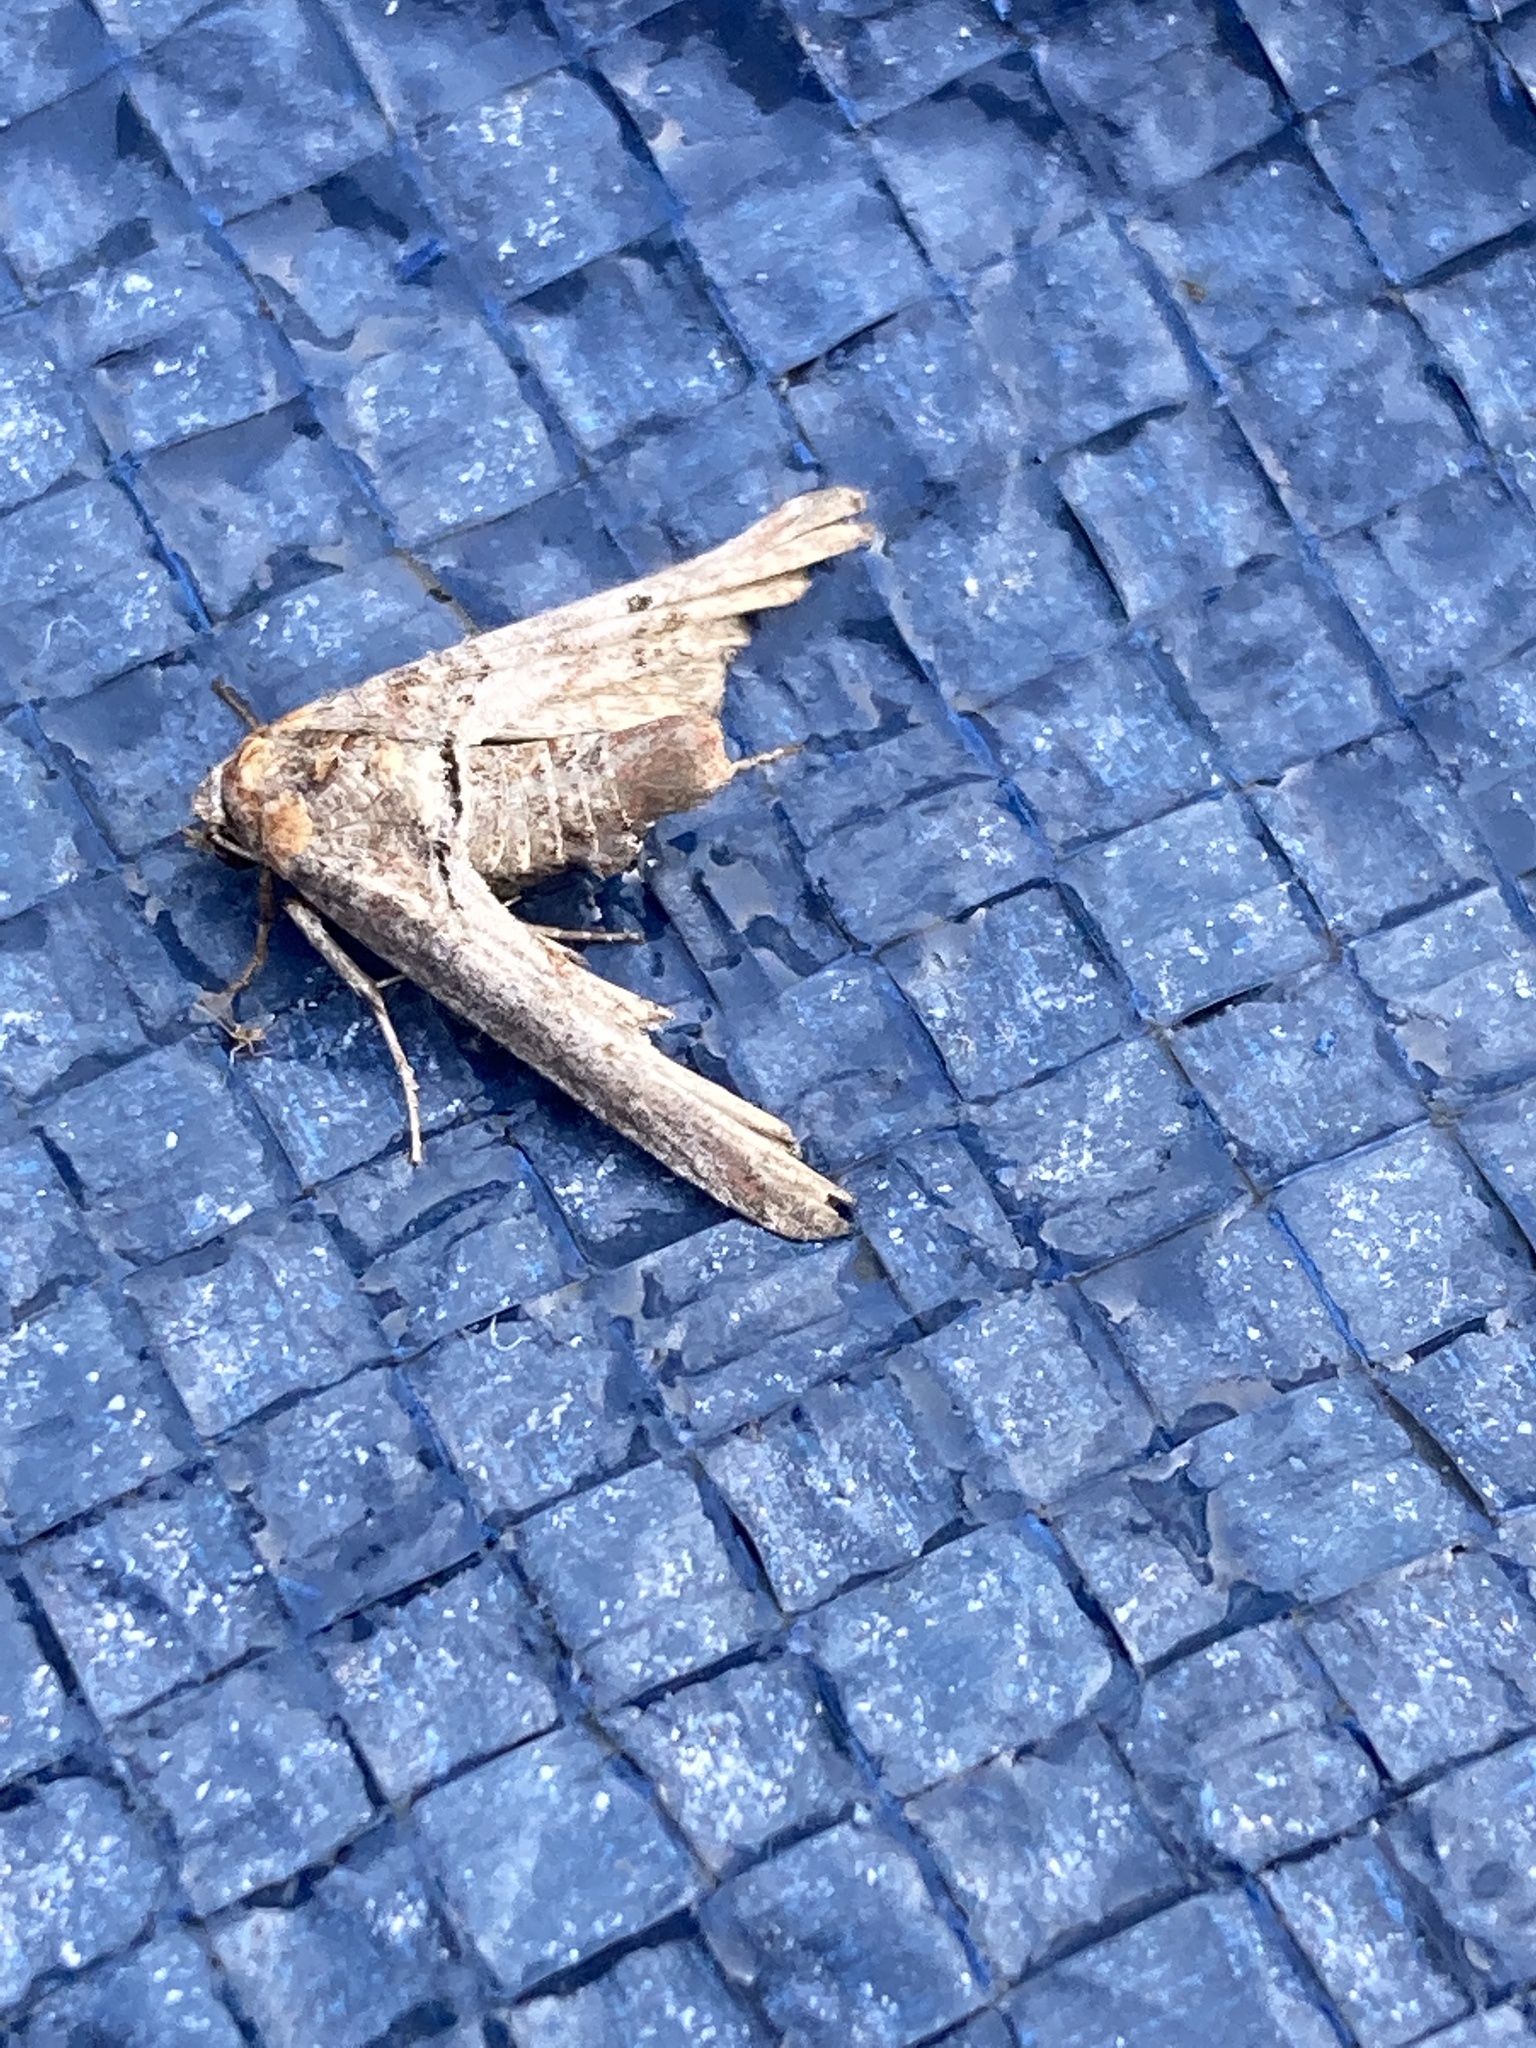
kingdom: Animalia
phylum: Arthropoda
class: Insecta
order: Lepidoptera
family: Euteliidae
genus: Marathyssa
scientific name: Marathyssa inficita
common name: Dark marathyssa moth
